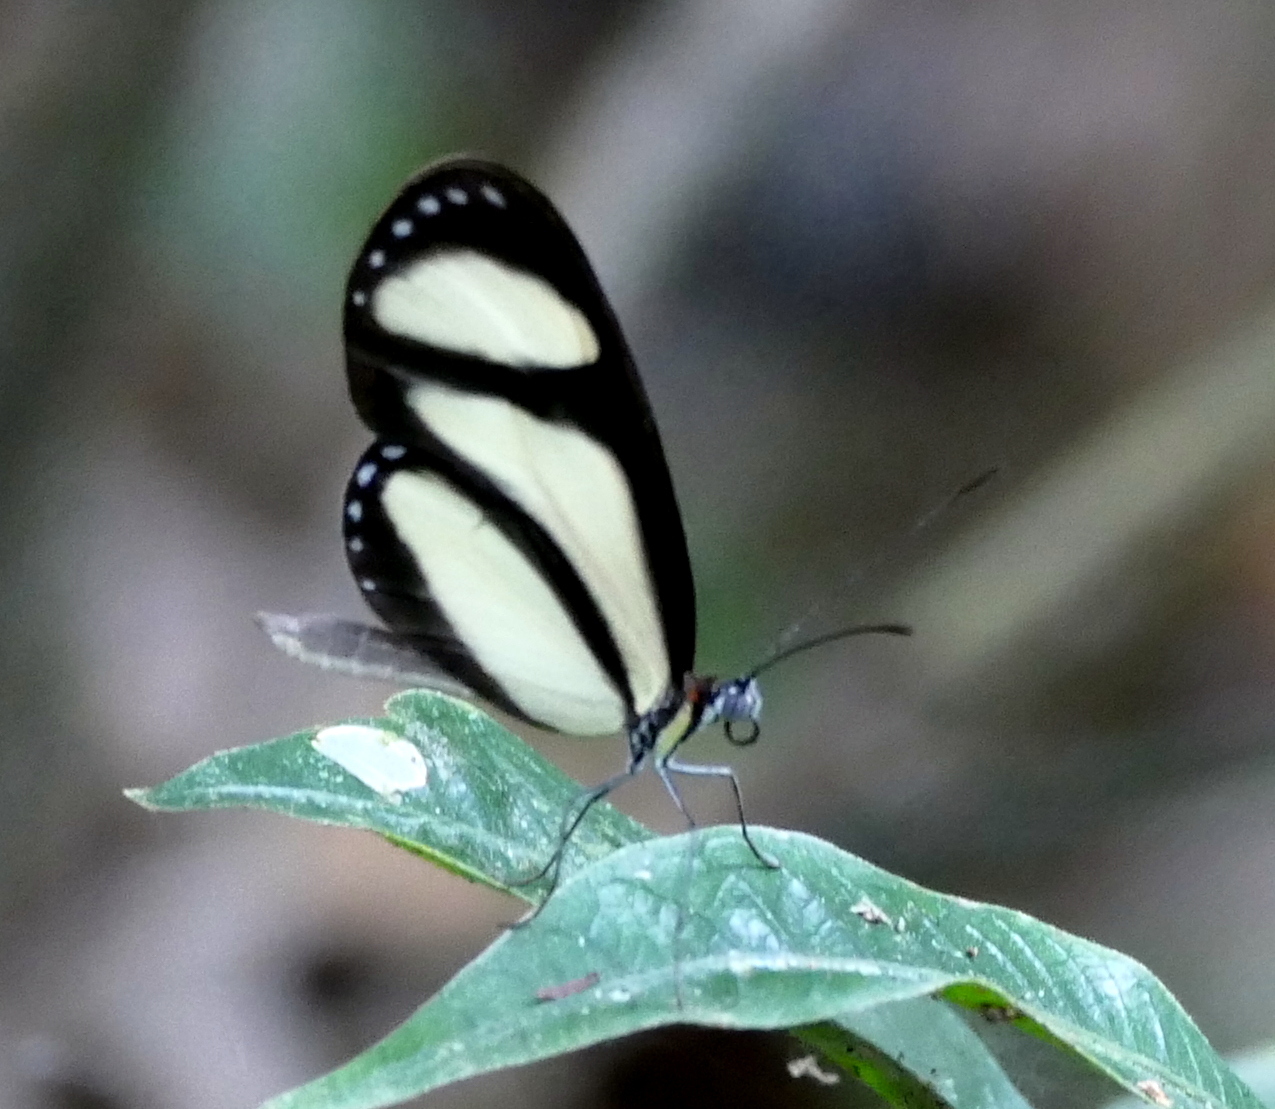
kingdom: Animalia
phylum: Arthropoda
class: Insecta
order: Lepidoptera
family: Nymphalidae
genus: Heteroscada
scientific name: Heteroscada reckia
